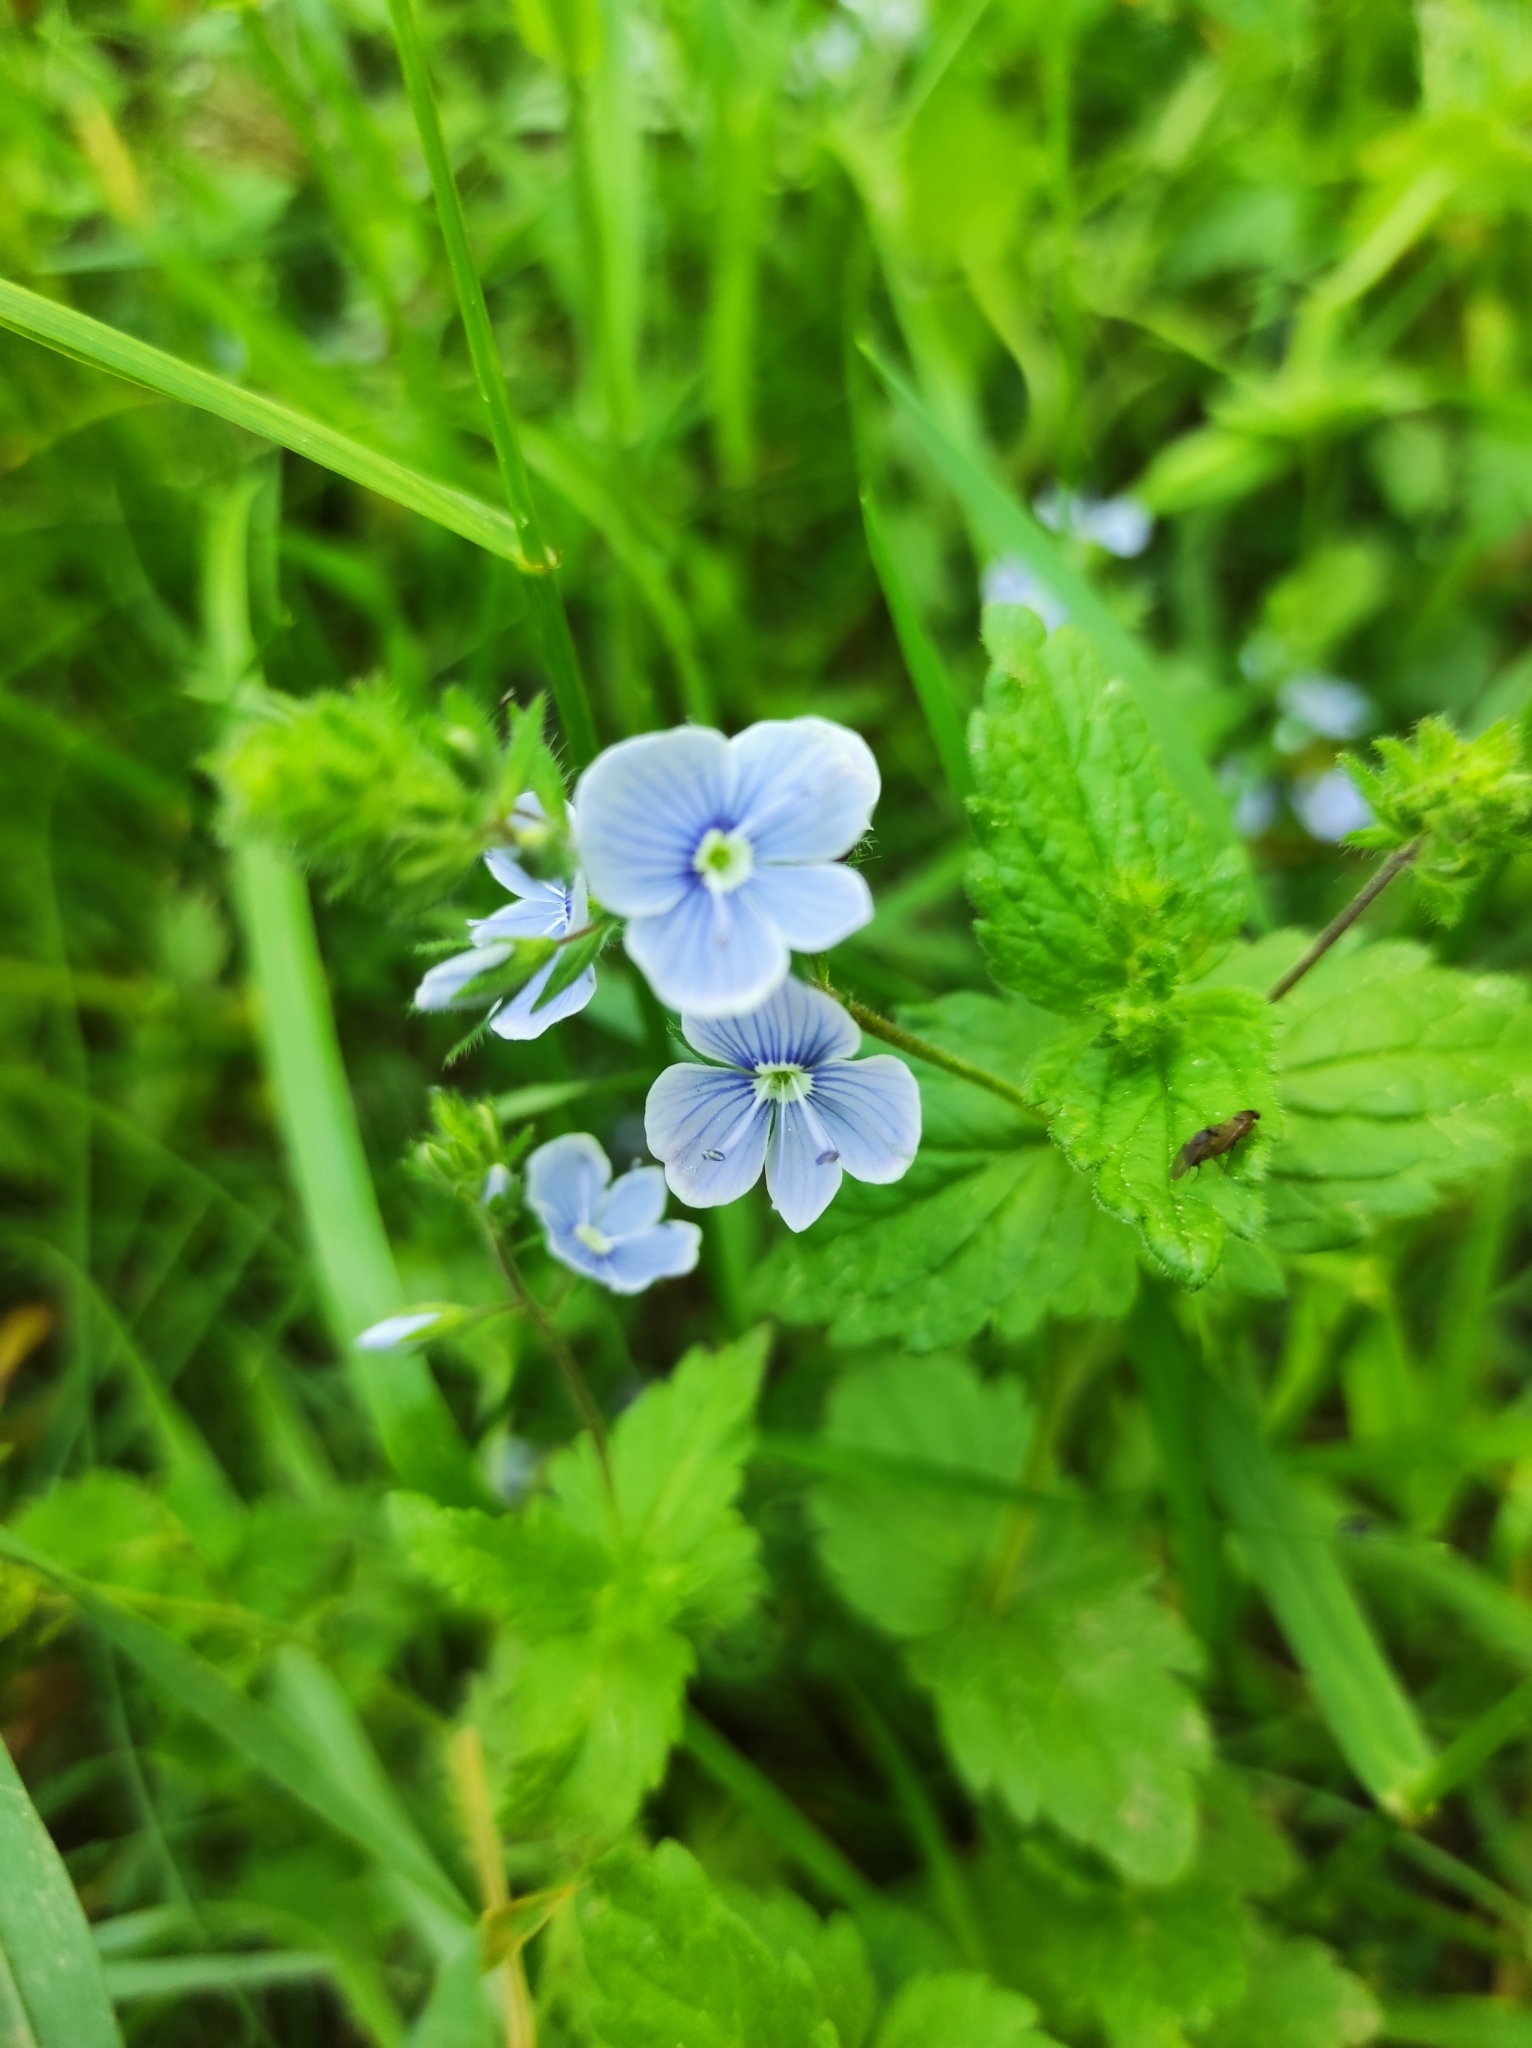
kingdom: Plantae
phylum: Tracheophyta
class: Magnoliopsida
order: Lamiales
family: Plantaginaceae
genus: Veronica
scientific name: Veronica chamaedrys
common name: Germander speedwell
